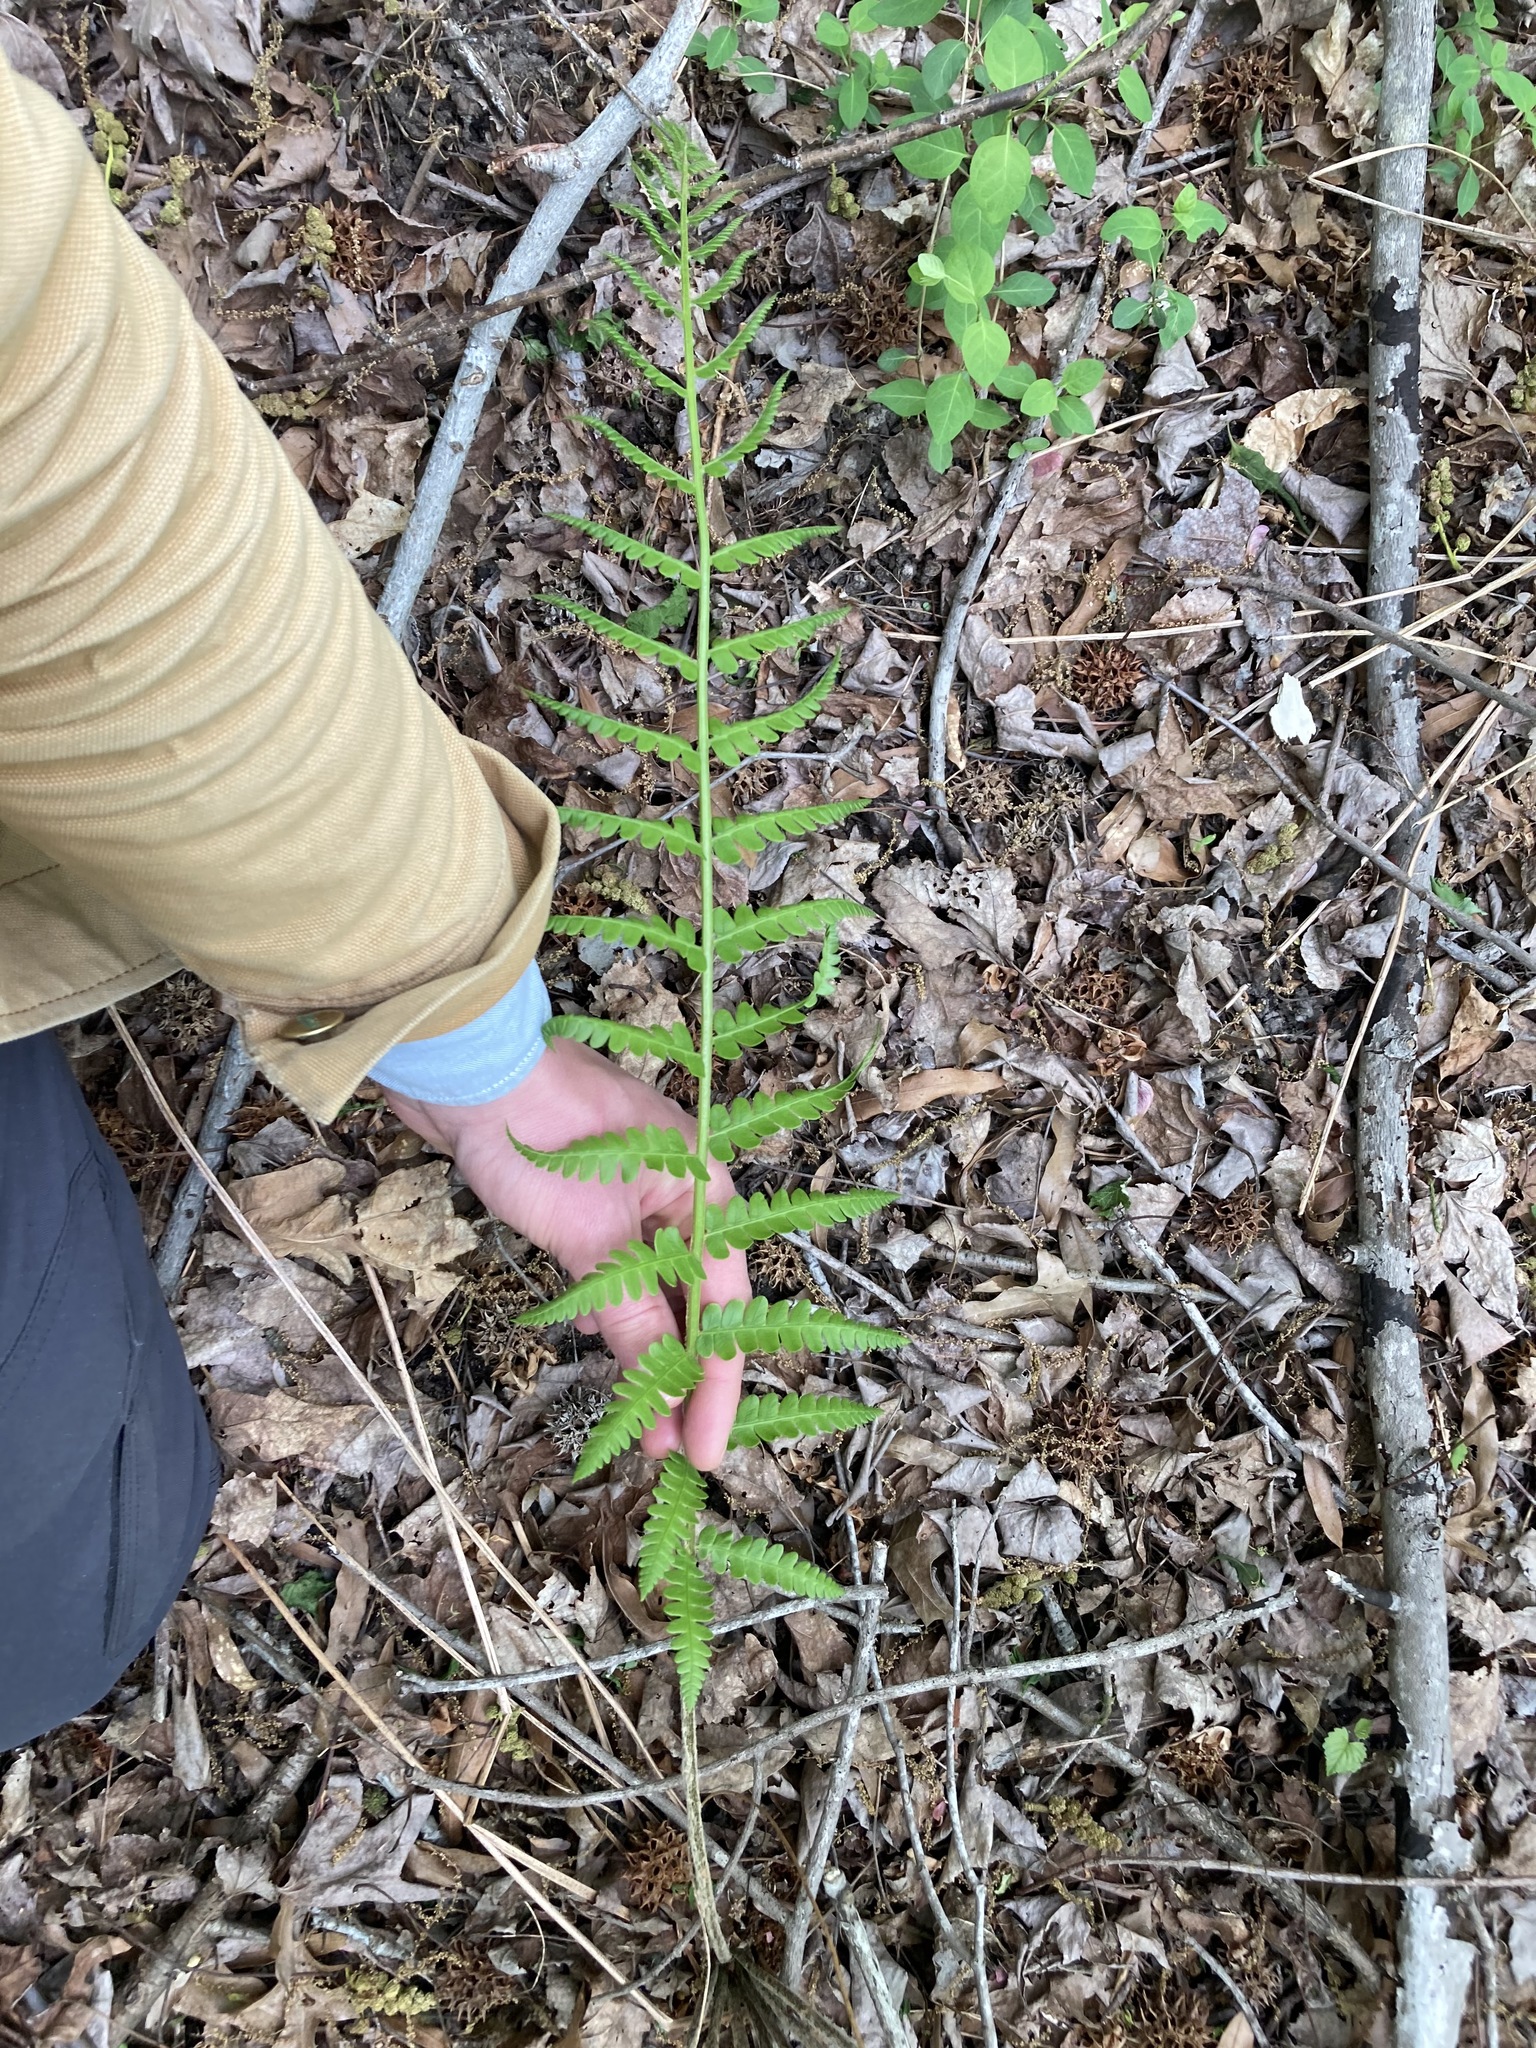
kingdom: Plantae
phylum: Tracheophyta
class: Polypodiopsida
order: Osmundales
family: Osmundaceae
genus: Osmundastrum
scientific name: Osmundastrum cinnamomeum
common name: Cinnamon fern
